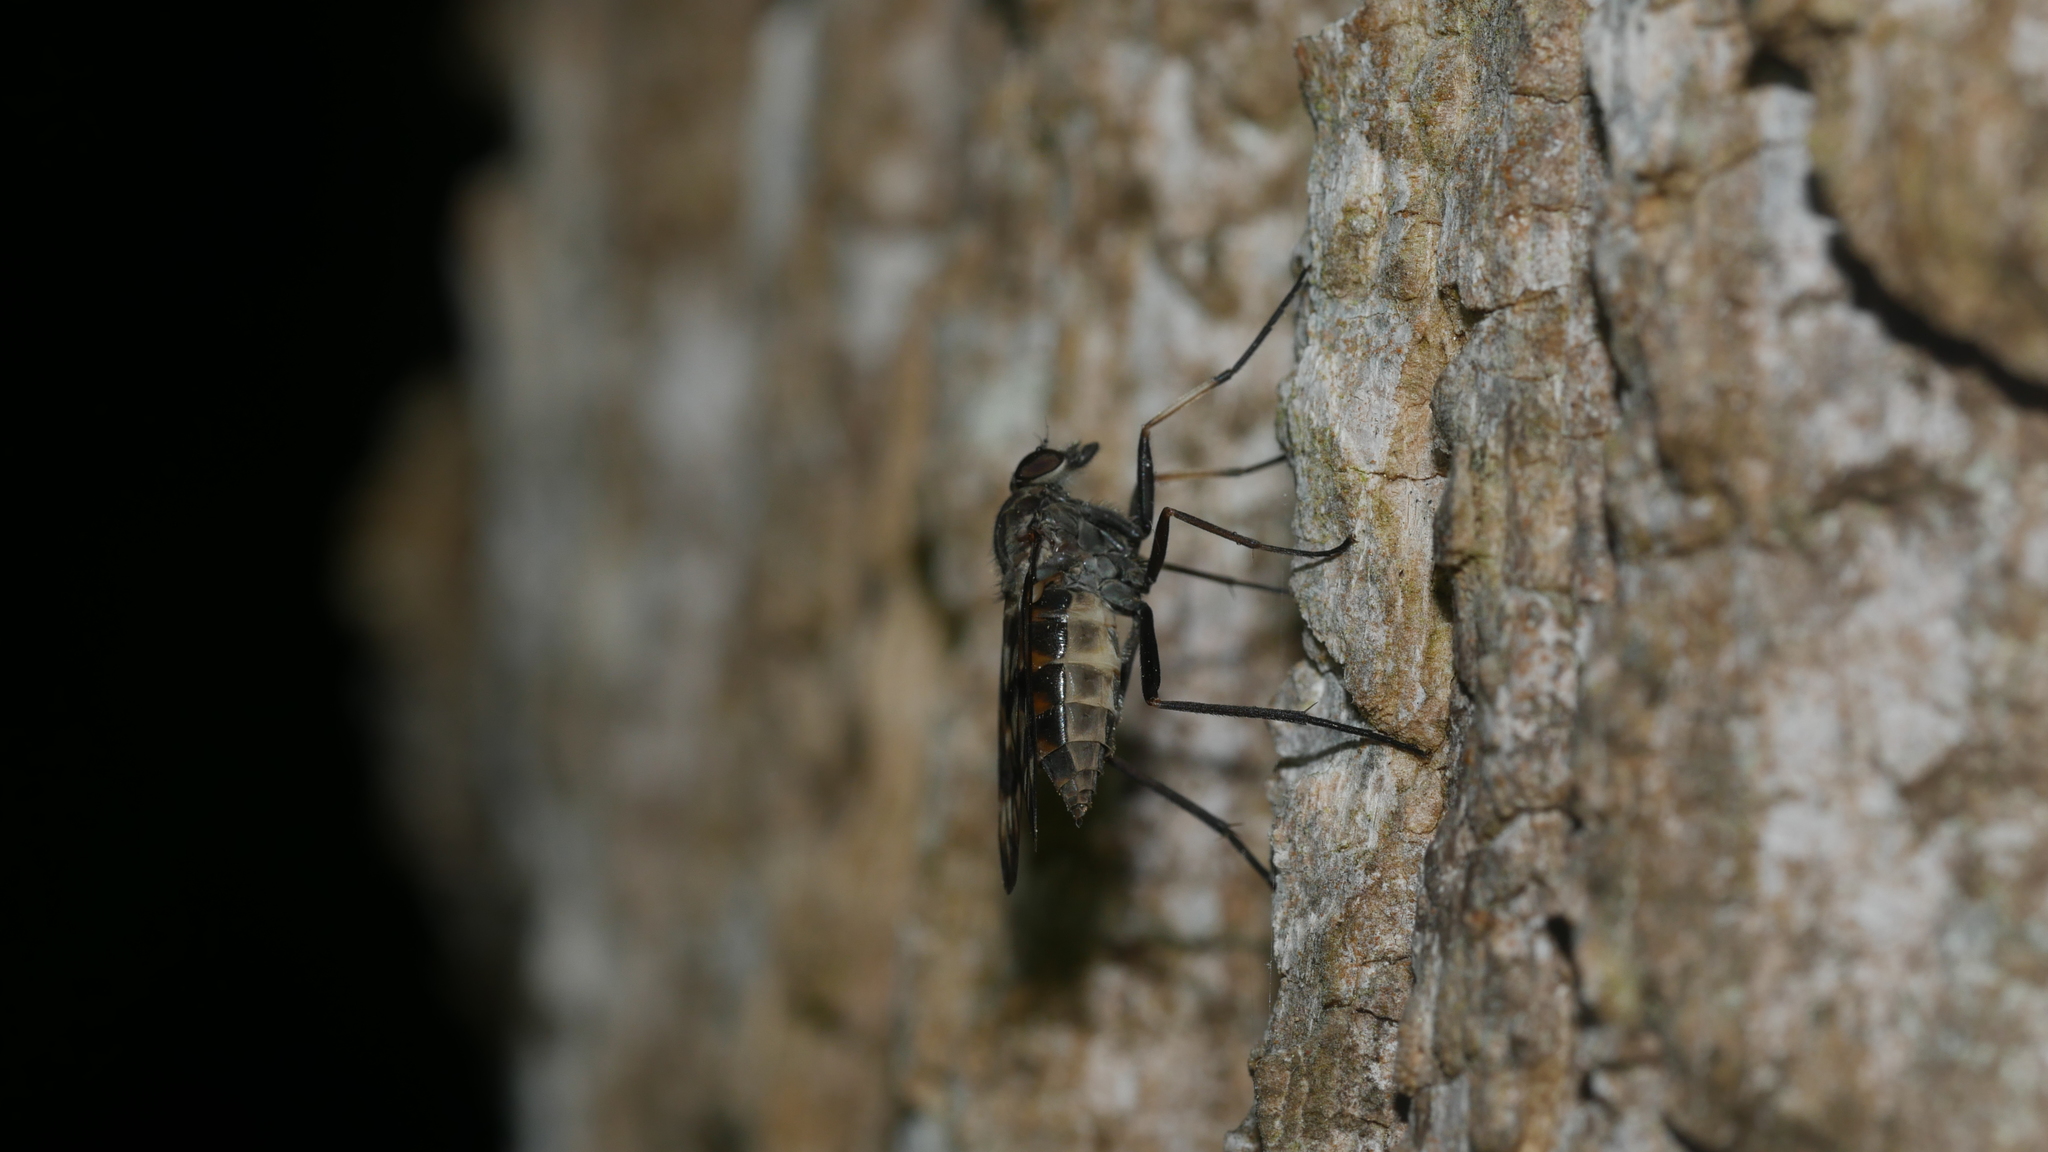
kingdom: Animalia
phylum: Arthropoda
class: Insecta
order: Diptera
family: Rhagionidae
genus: Rhagio
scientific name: Rhagio mystaceus
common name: Common snipe fly
